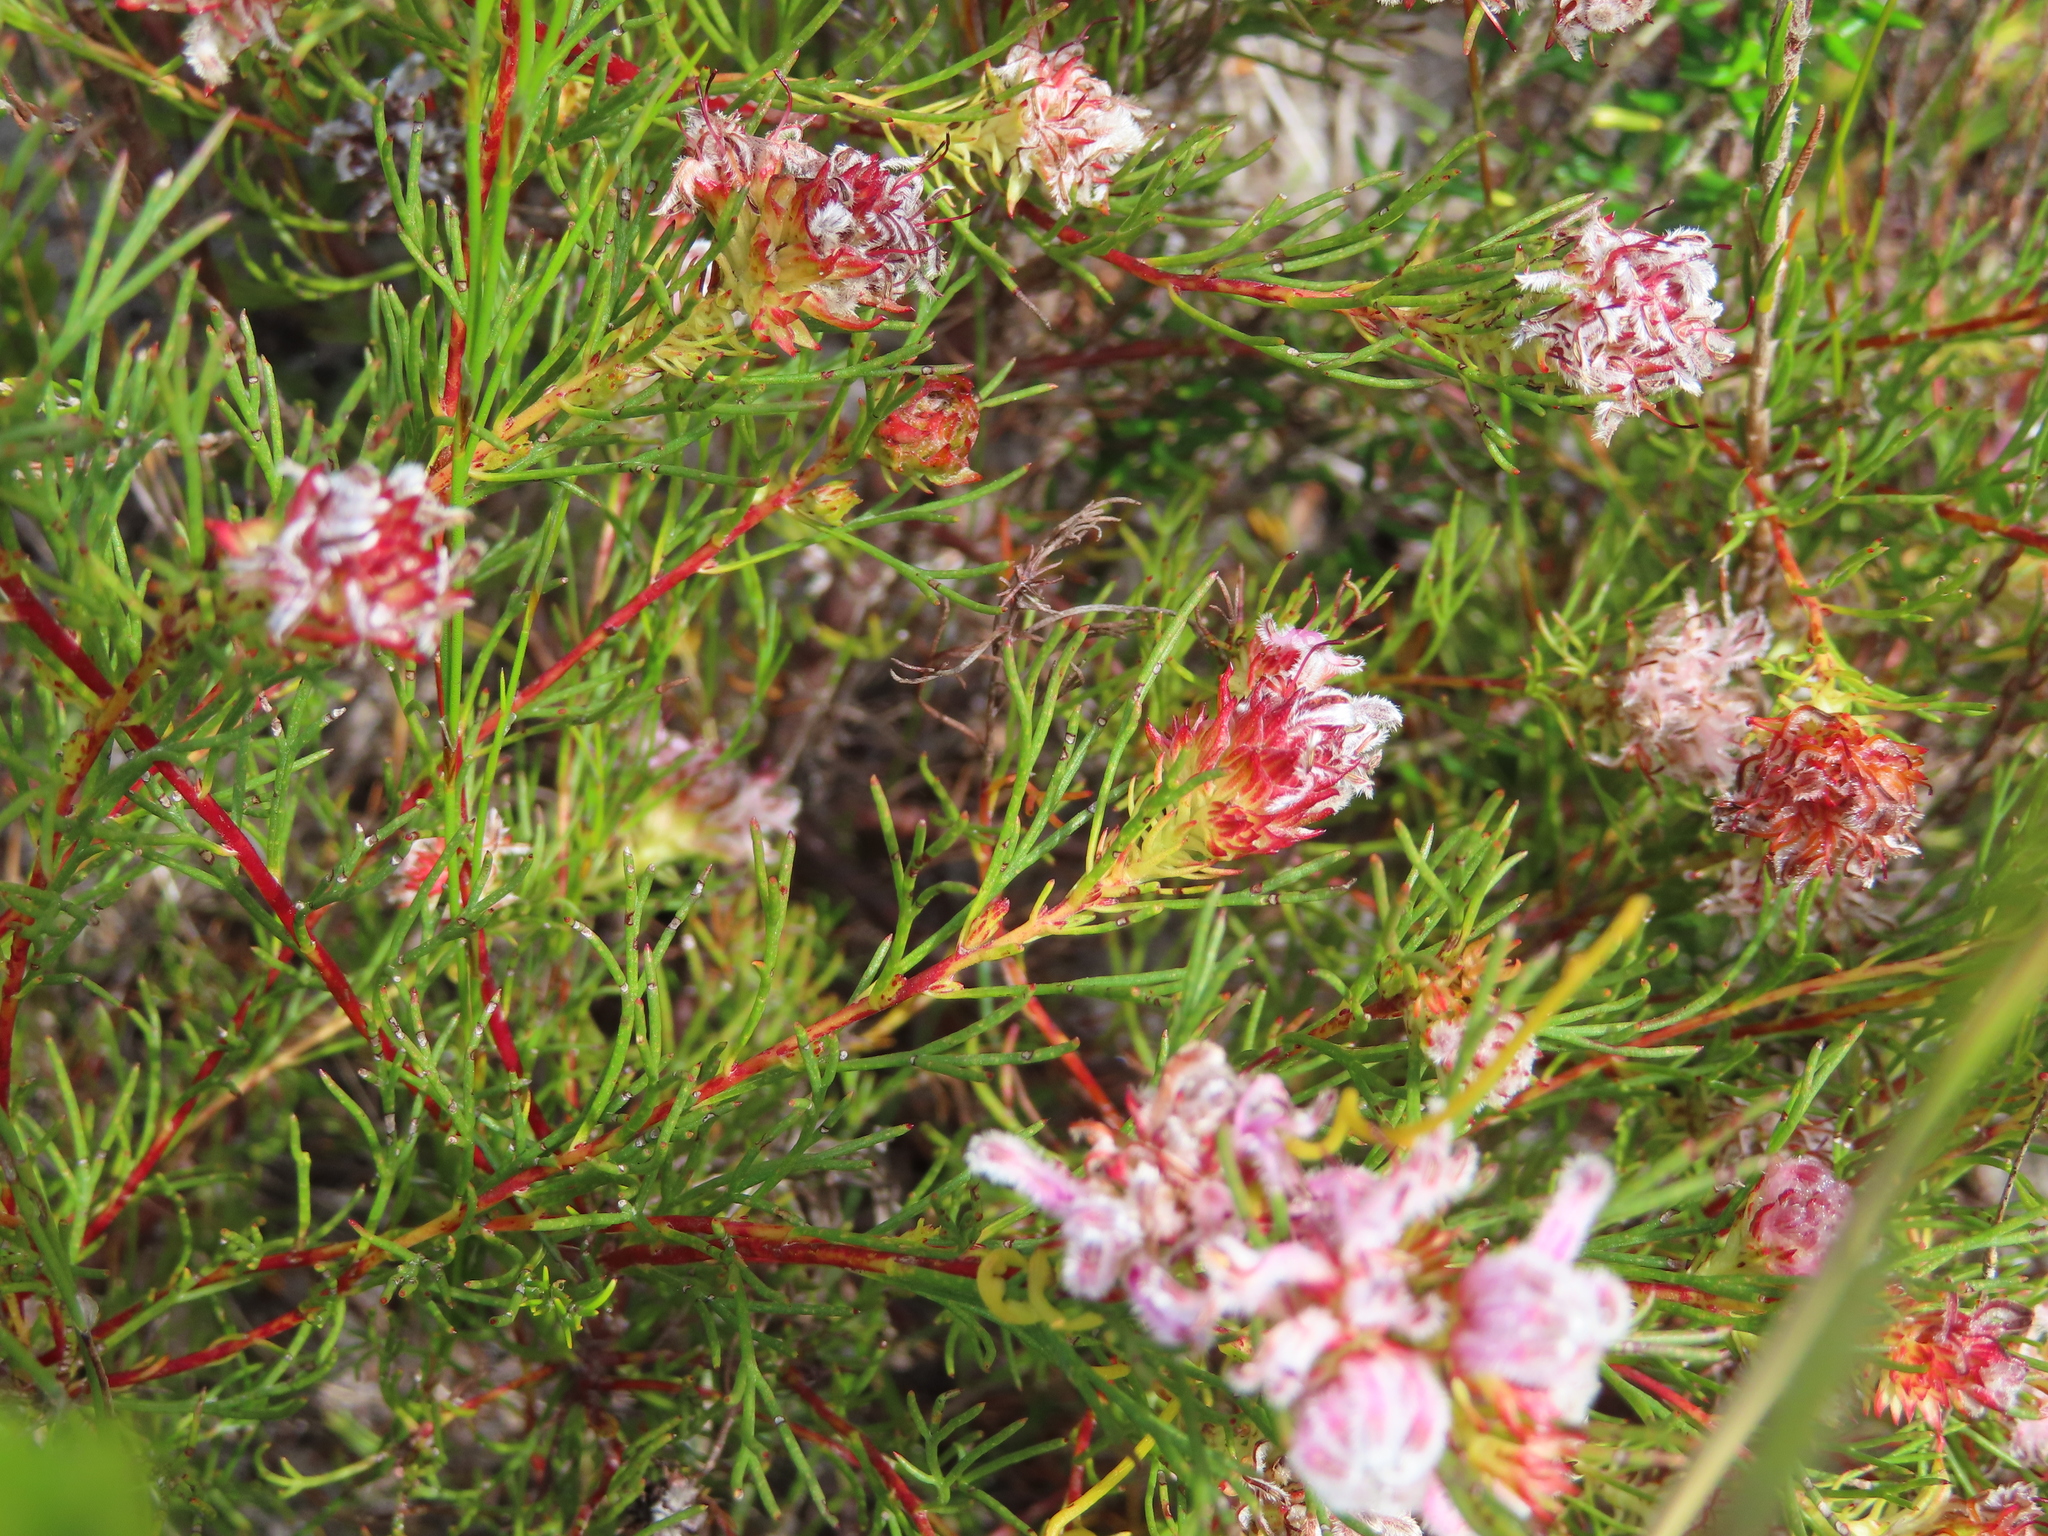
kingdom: Plantae
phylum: Tracheophyta
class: Magnoliopsida
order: Proteales
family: Proteaceae
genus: Serruria
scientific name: Serruria nervosa
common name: Fluted spiderhead
